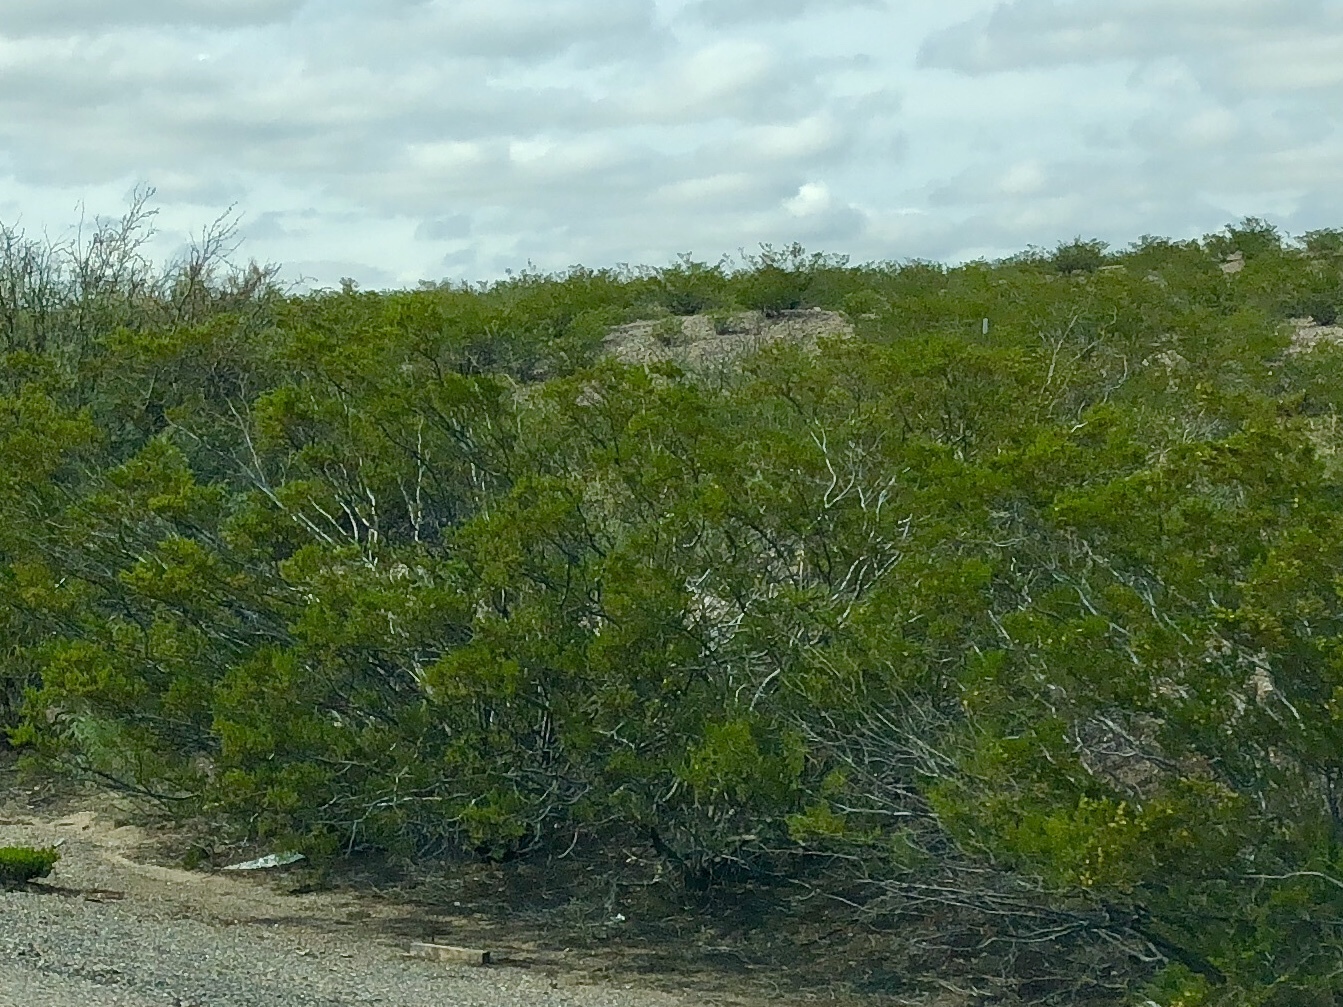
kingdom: Plantae
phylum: Tracheophyta
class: Magnoliopsida
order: Zygophyllales
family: Zygophyllaceae
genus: Larrea
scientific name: Larrea tridentata
